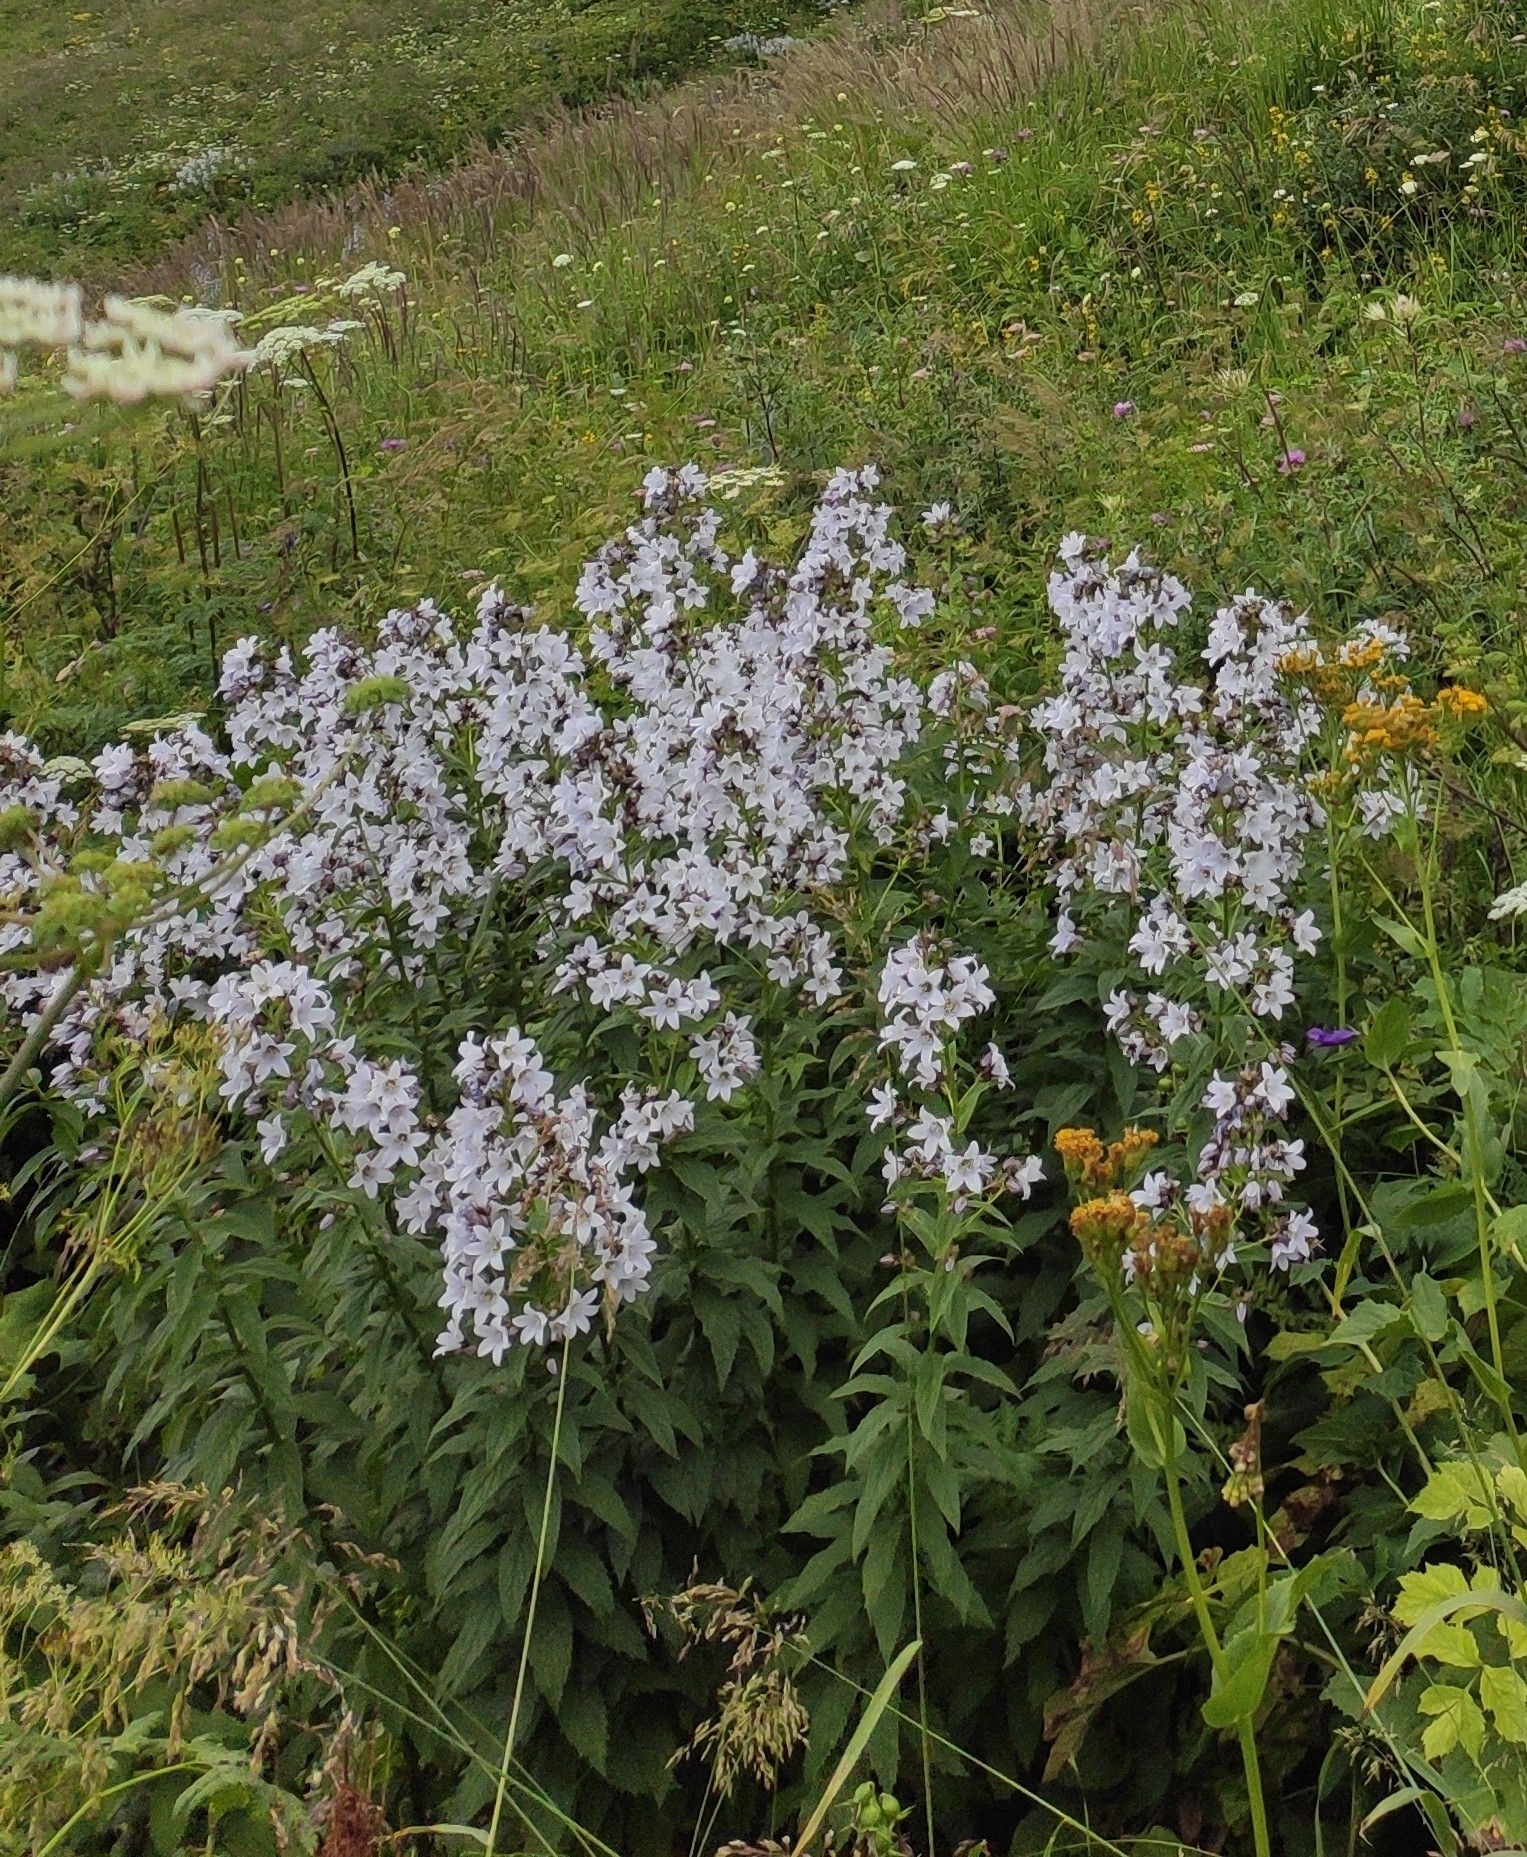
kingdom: Plantae
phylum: Tracheophyta
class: Magnoliopsida
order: Asterales
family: Campanulaceae
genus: Campanula
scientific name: Campanula lactiflora
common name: Milky bellflower
